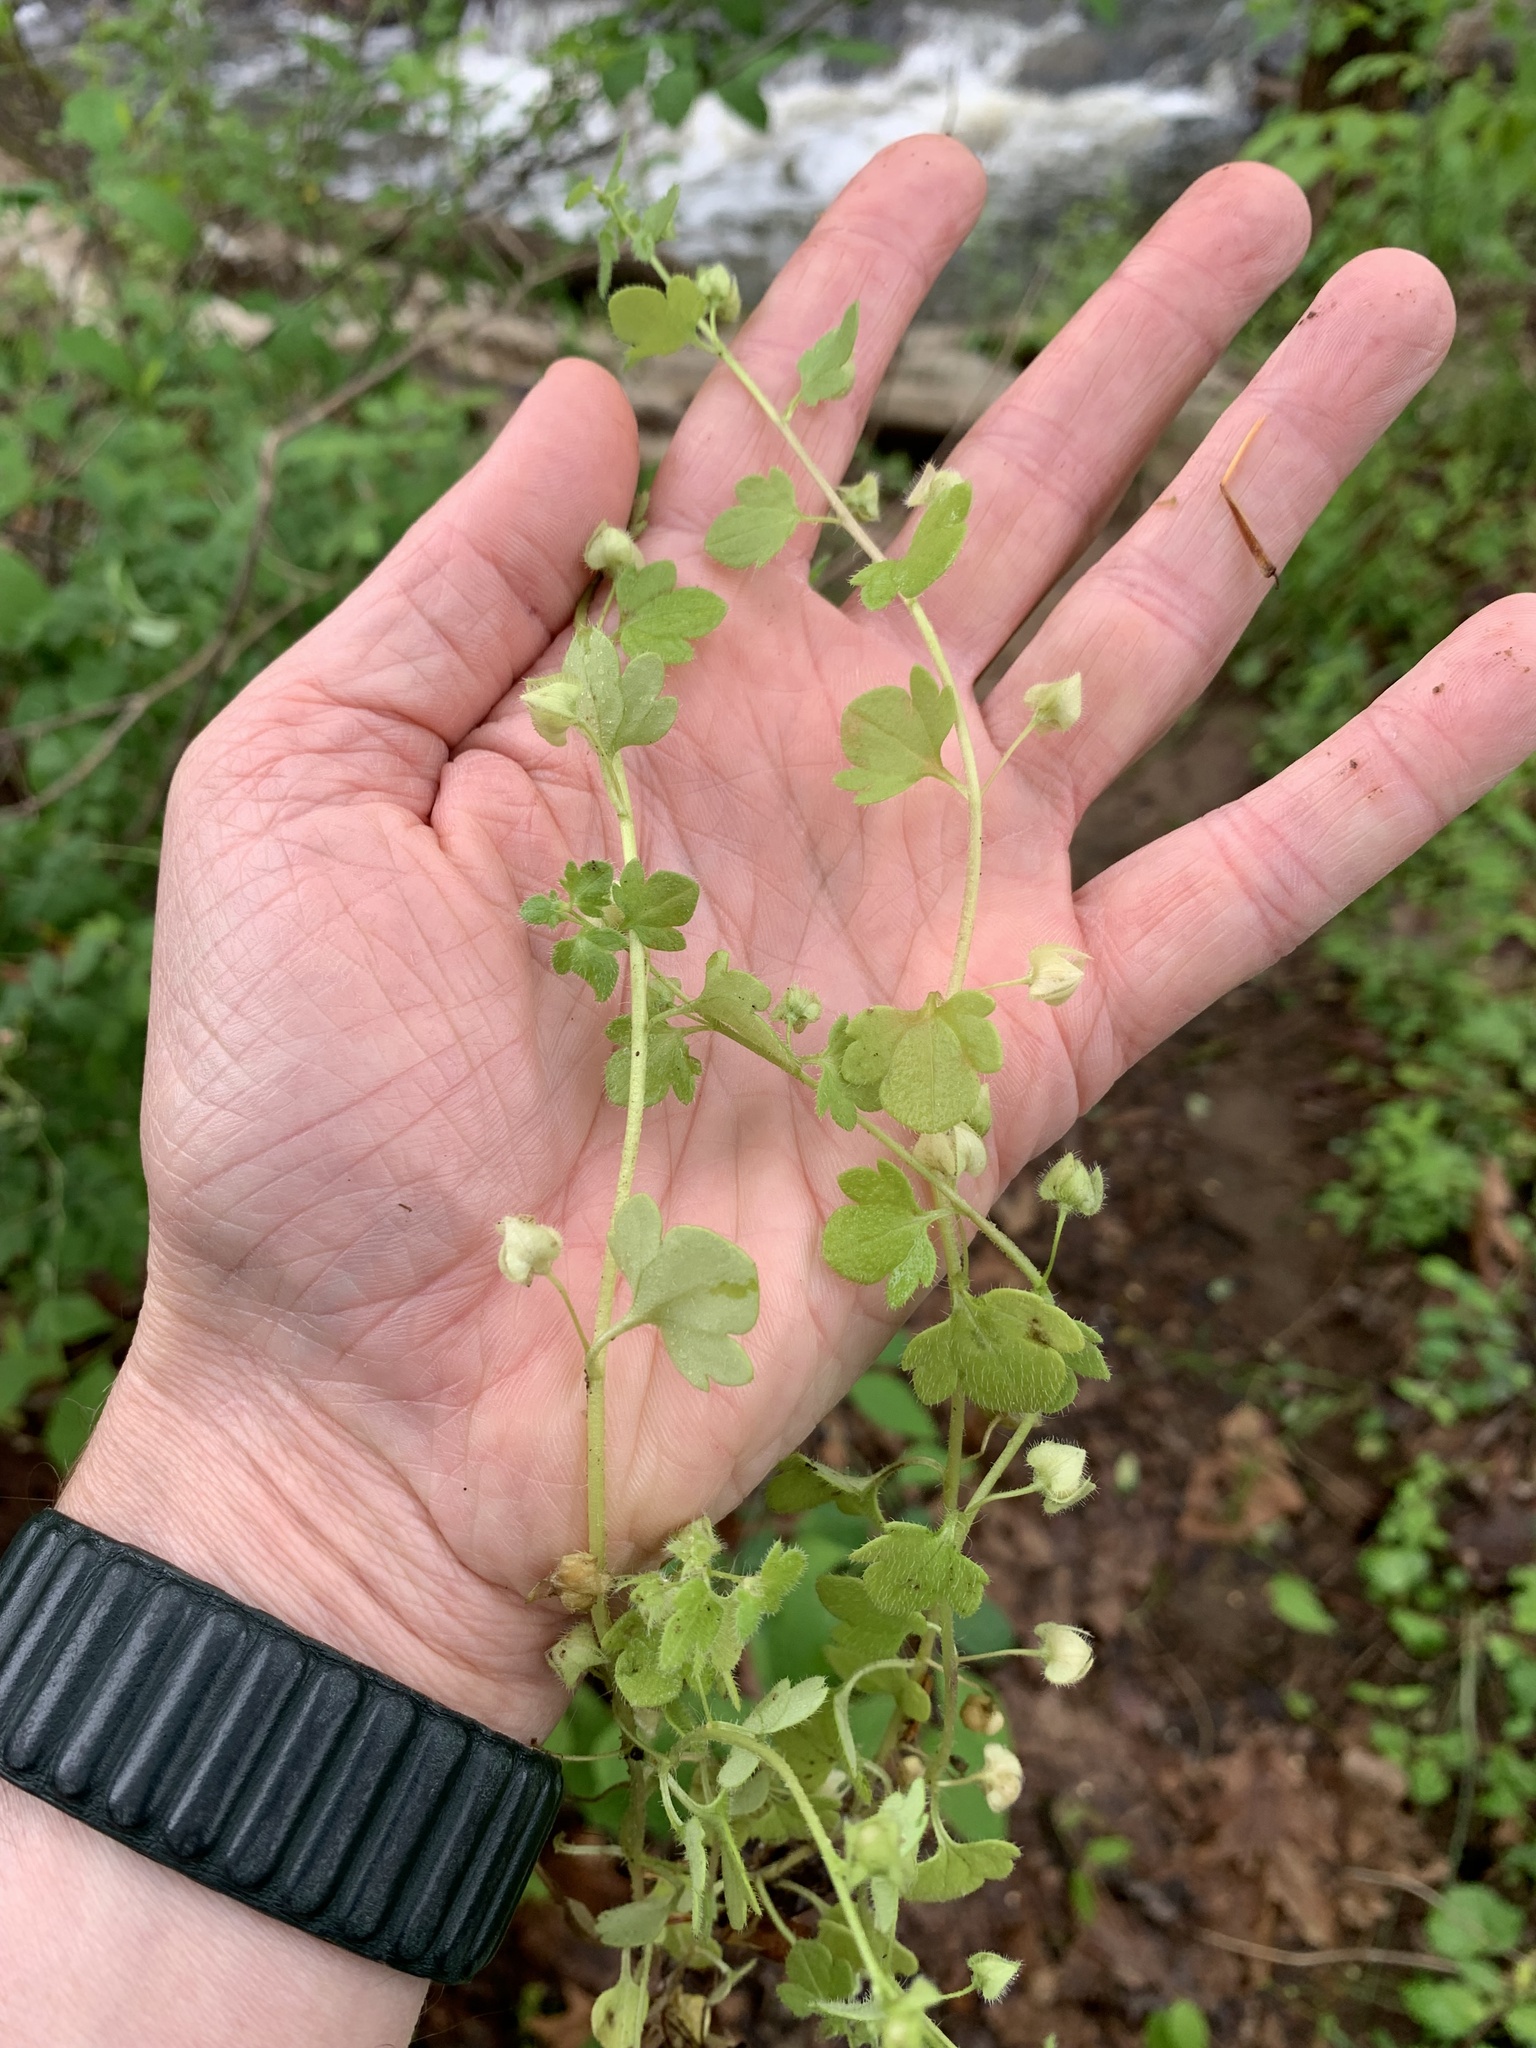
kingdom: Plantae
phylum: Tracheophyta
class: Magnoliopsida
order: Lamiales
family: Plantaginaceae
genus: Veronica
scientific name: Veronica hederifolia
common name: Ivy-leaved speedwell
